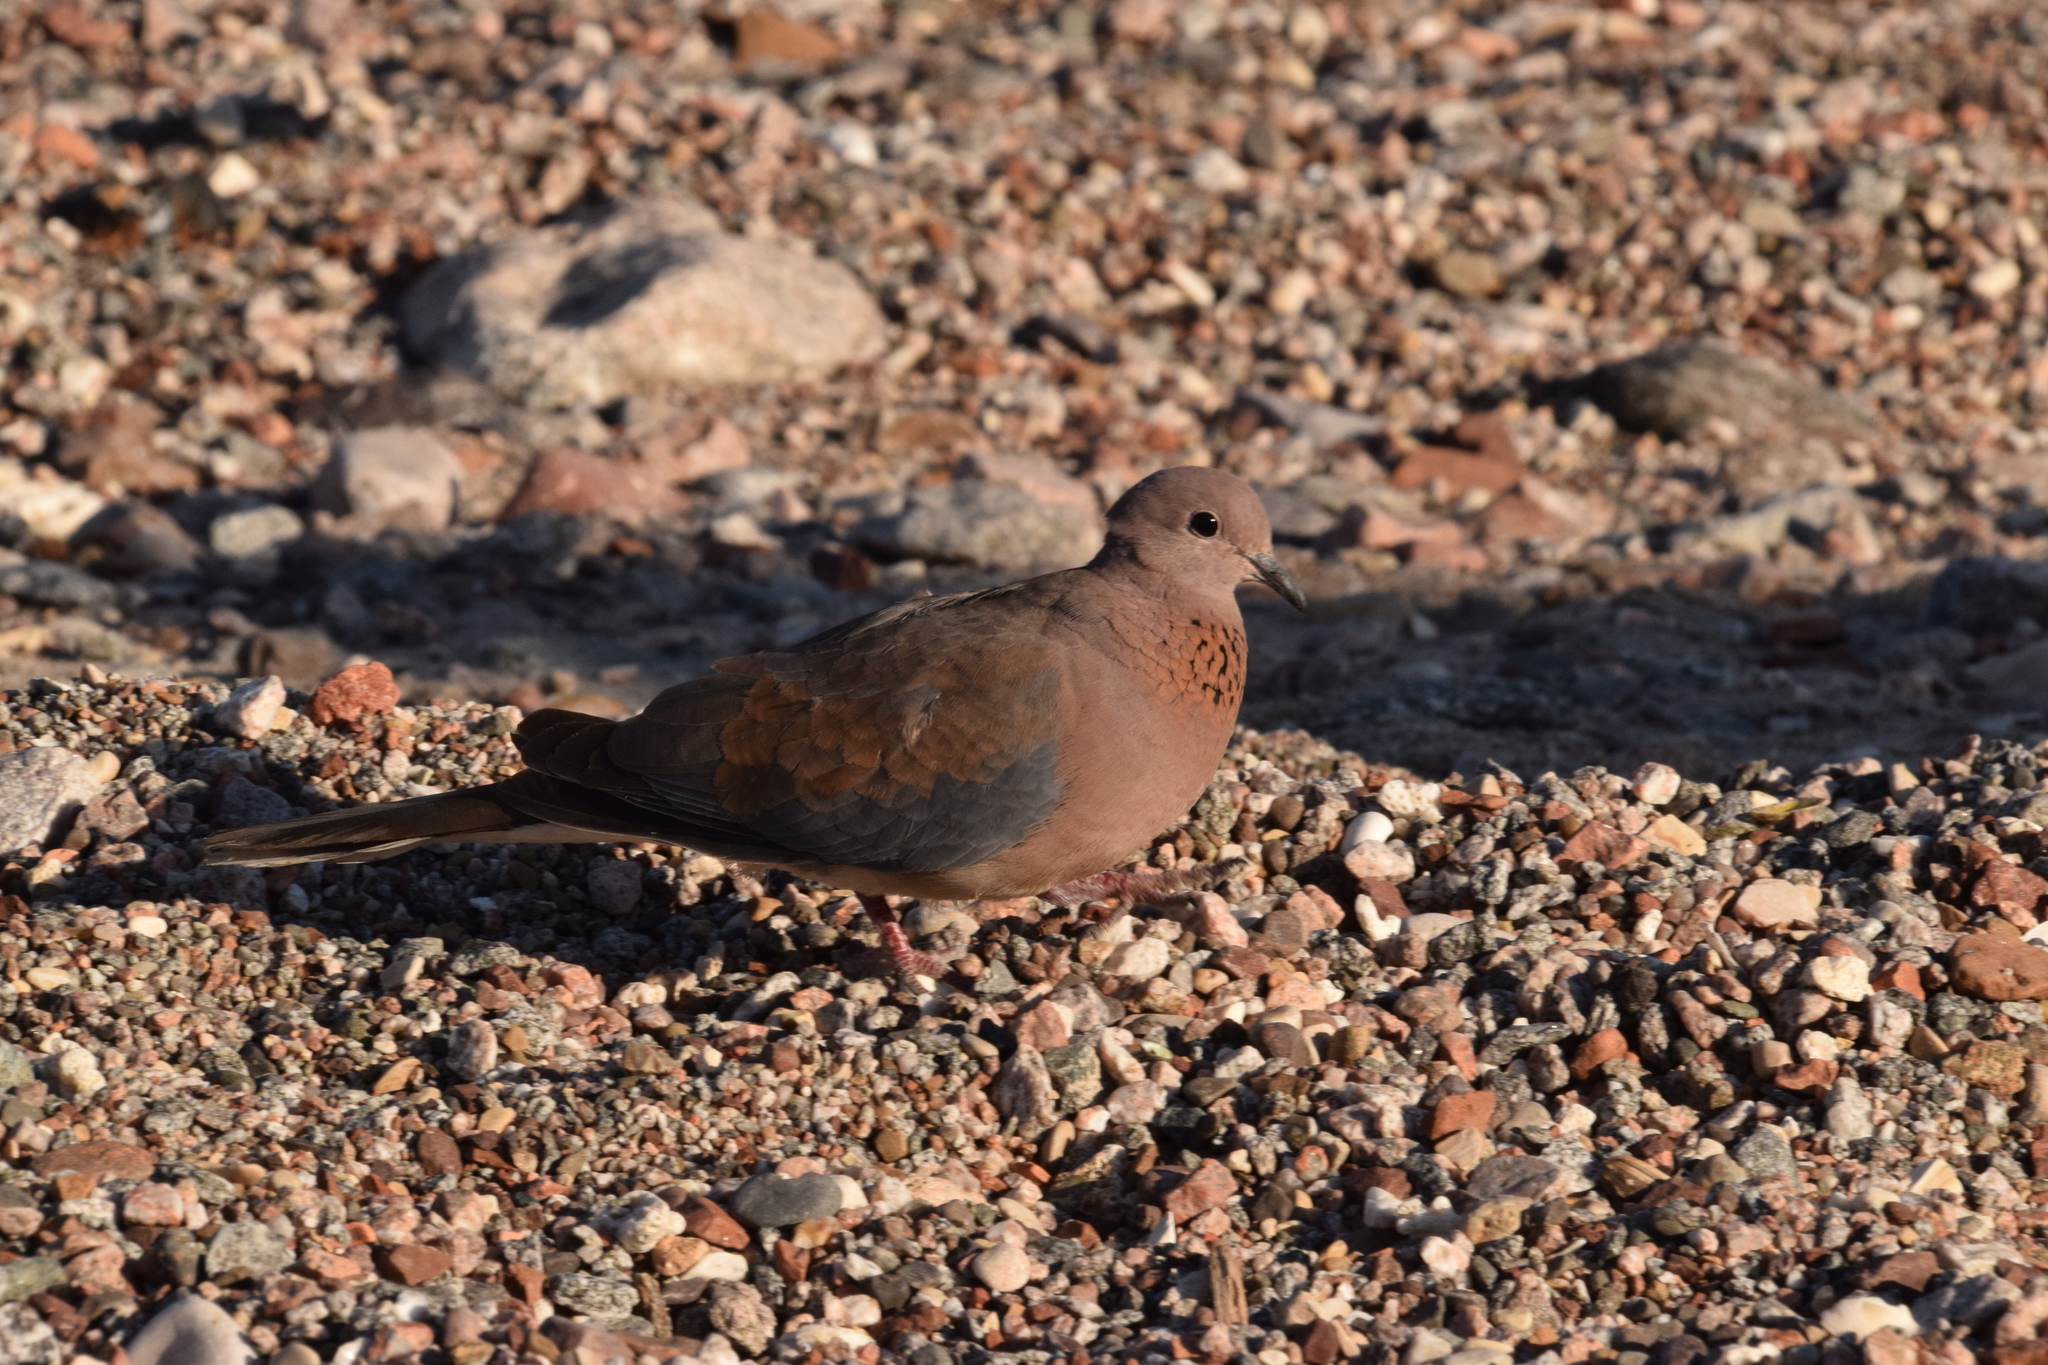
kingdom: Animalia
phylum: Chordata
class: Aves
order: Columbiformes
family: Columbidae
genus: Spilopelia
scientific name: Spilopelia senegalensis
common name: Laughing dove
